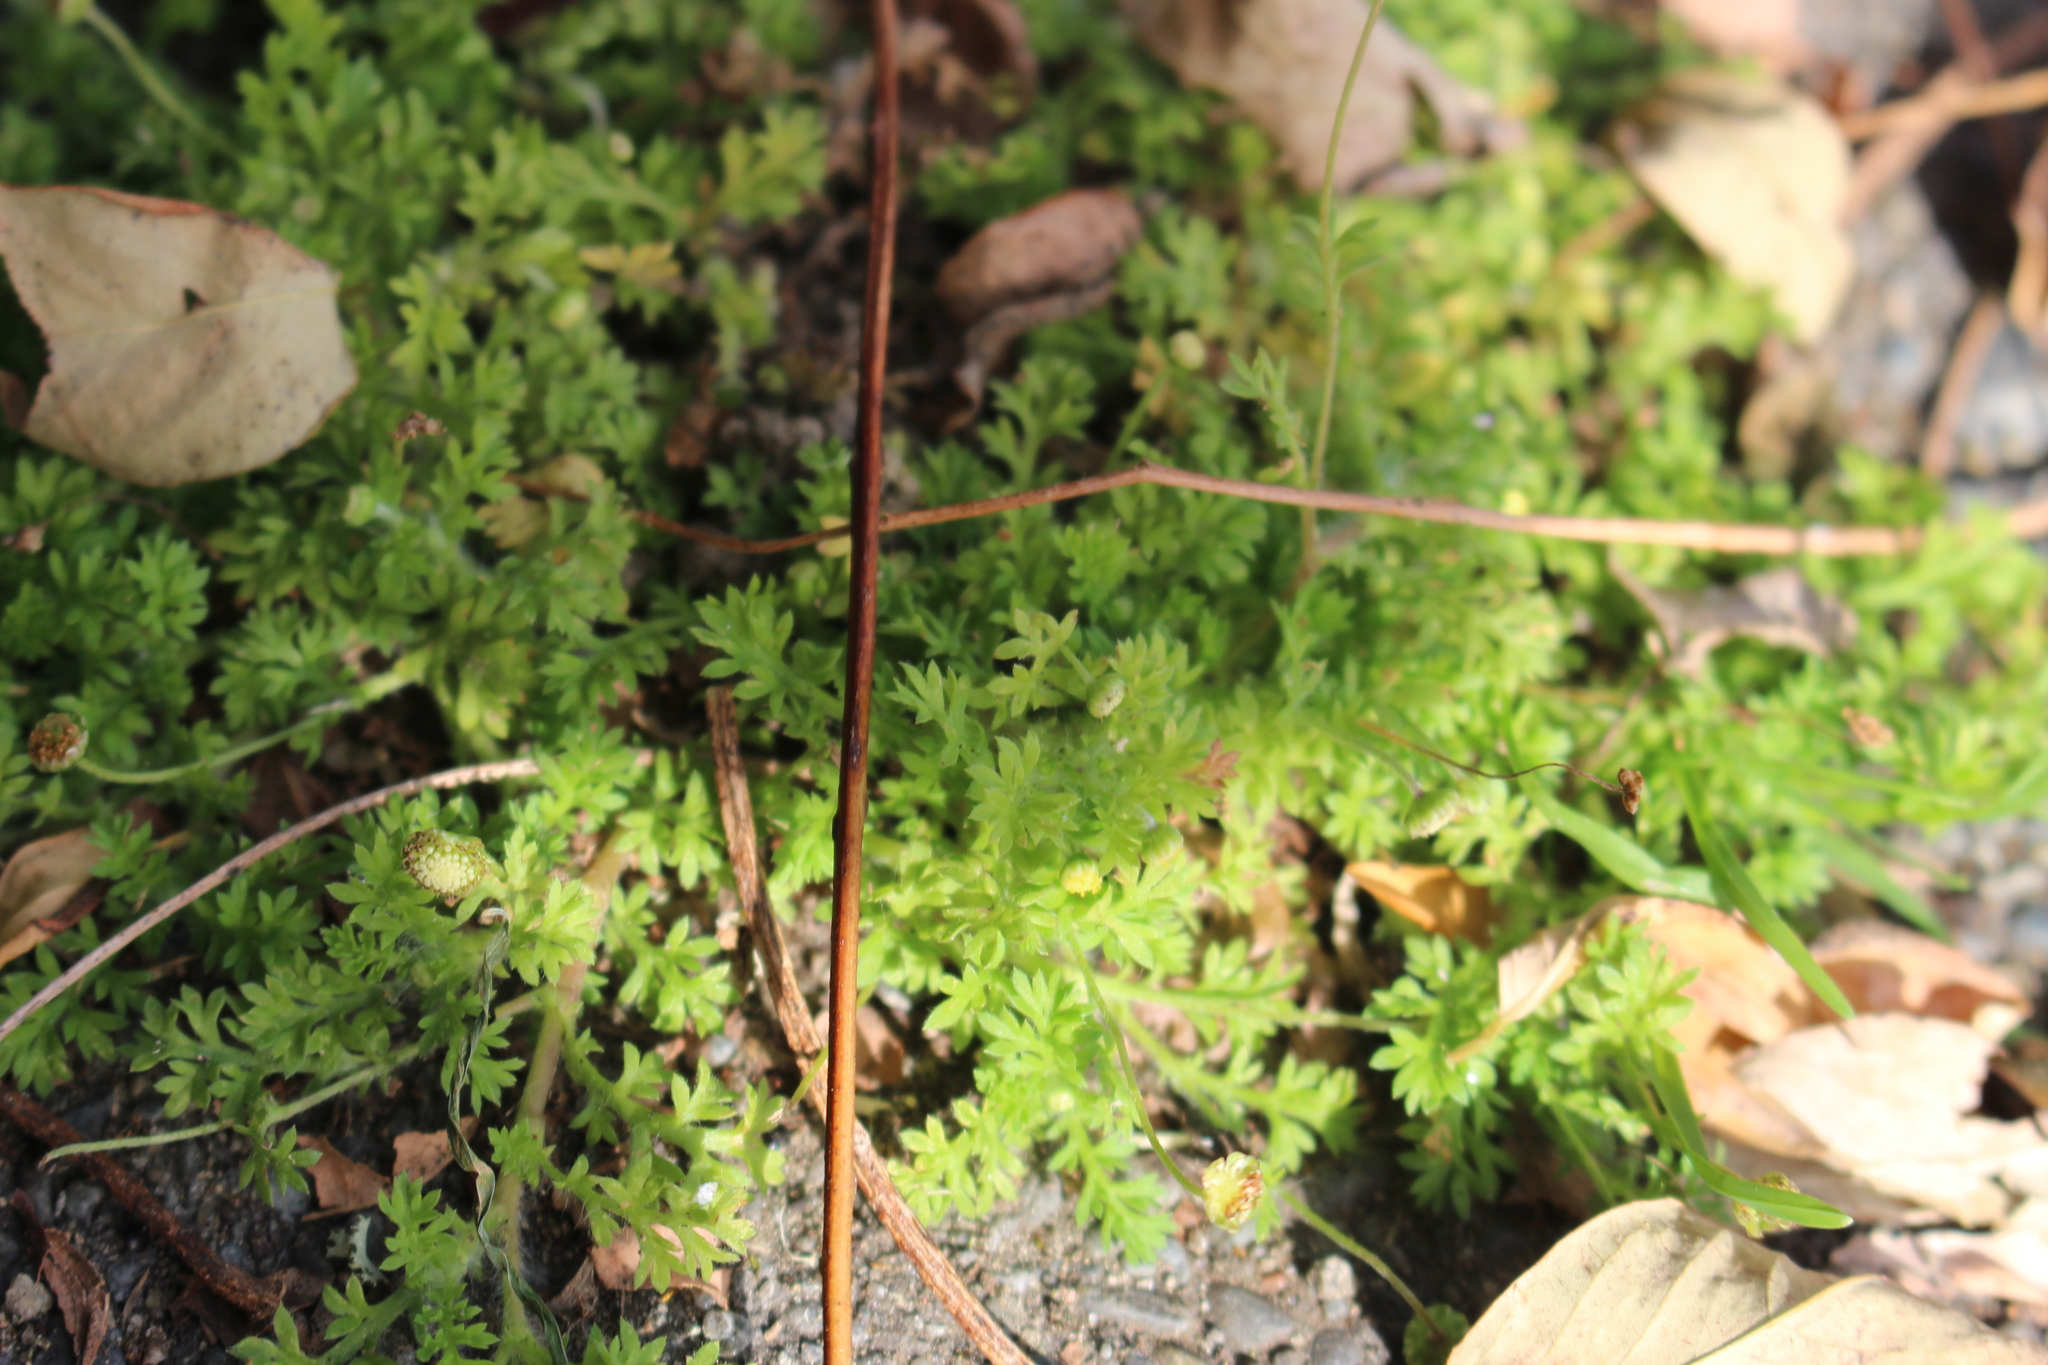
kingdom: Plantae
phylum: Tracheophyta
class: Magnoliopsida
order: Asterales
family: Asteraceae
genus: Cotula
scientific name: Cotula australis
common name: Australian waterbuttons
